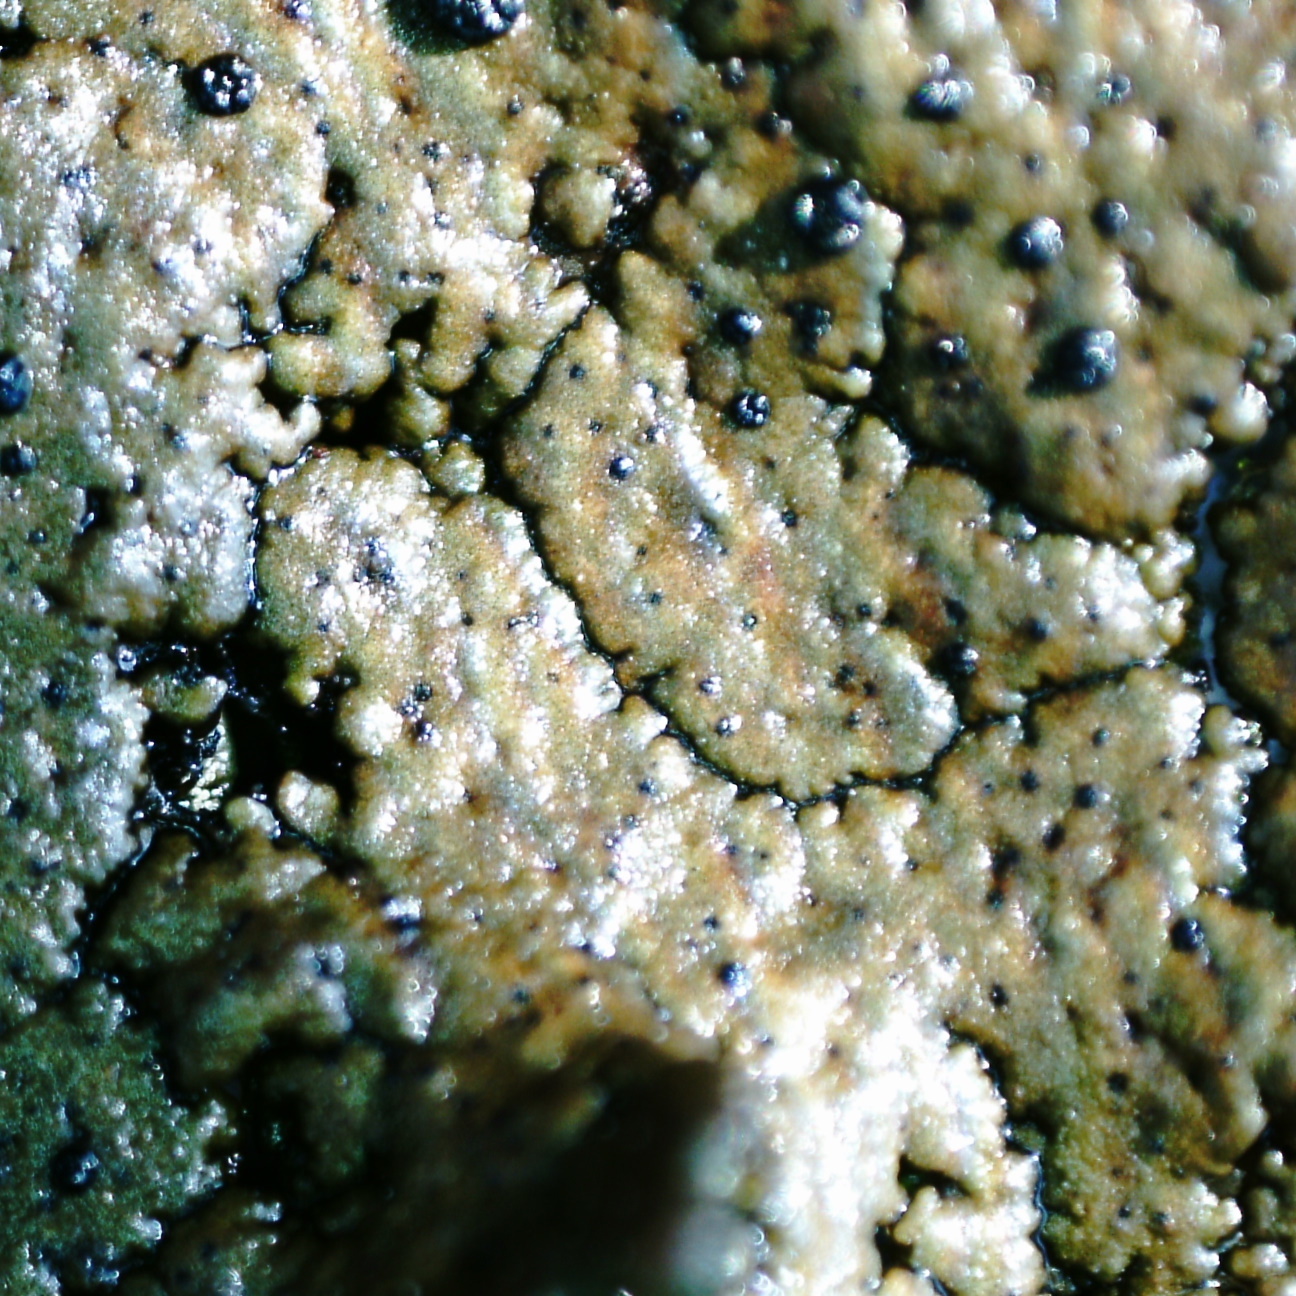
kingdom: Fungi
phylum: Ascomycota
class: Lecanoromycetes
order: Umbilicariales
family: Umbilicariaceae
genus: Umbilicaria
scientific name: Umbilicaria torrefacta
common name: Punctured rock tripe lichen
